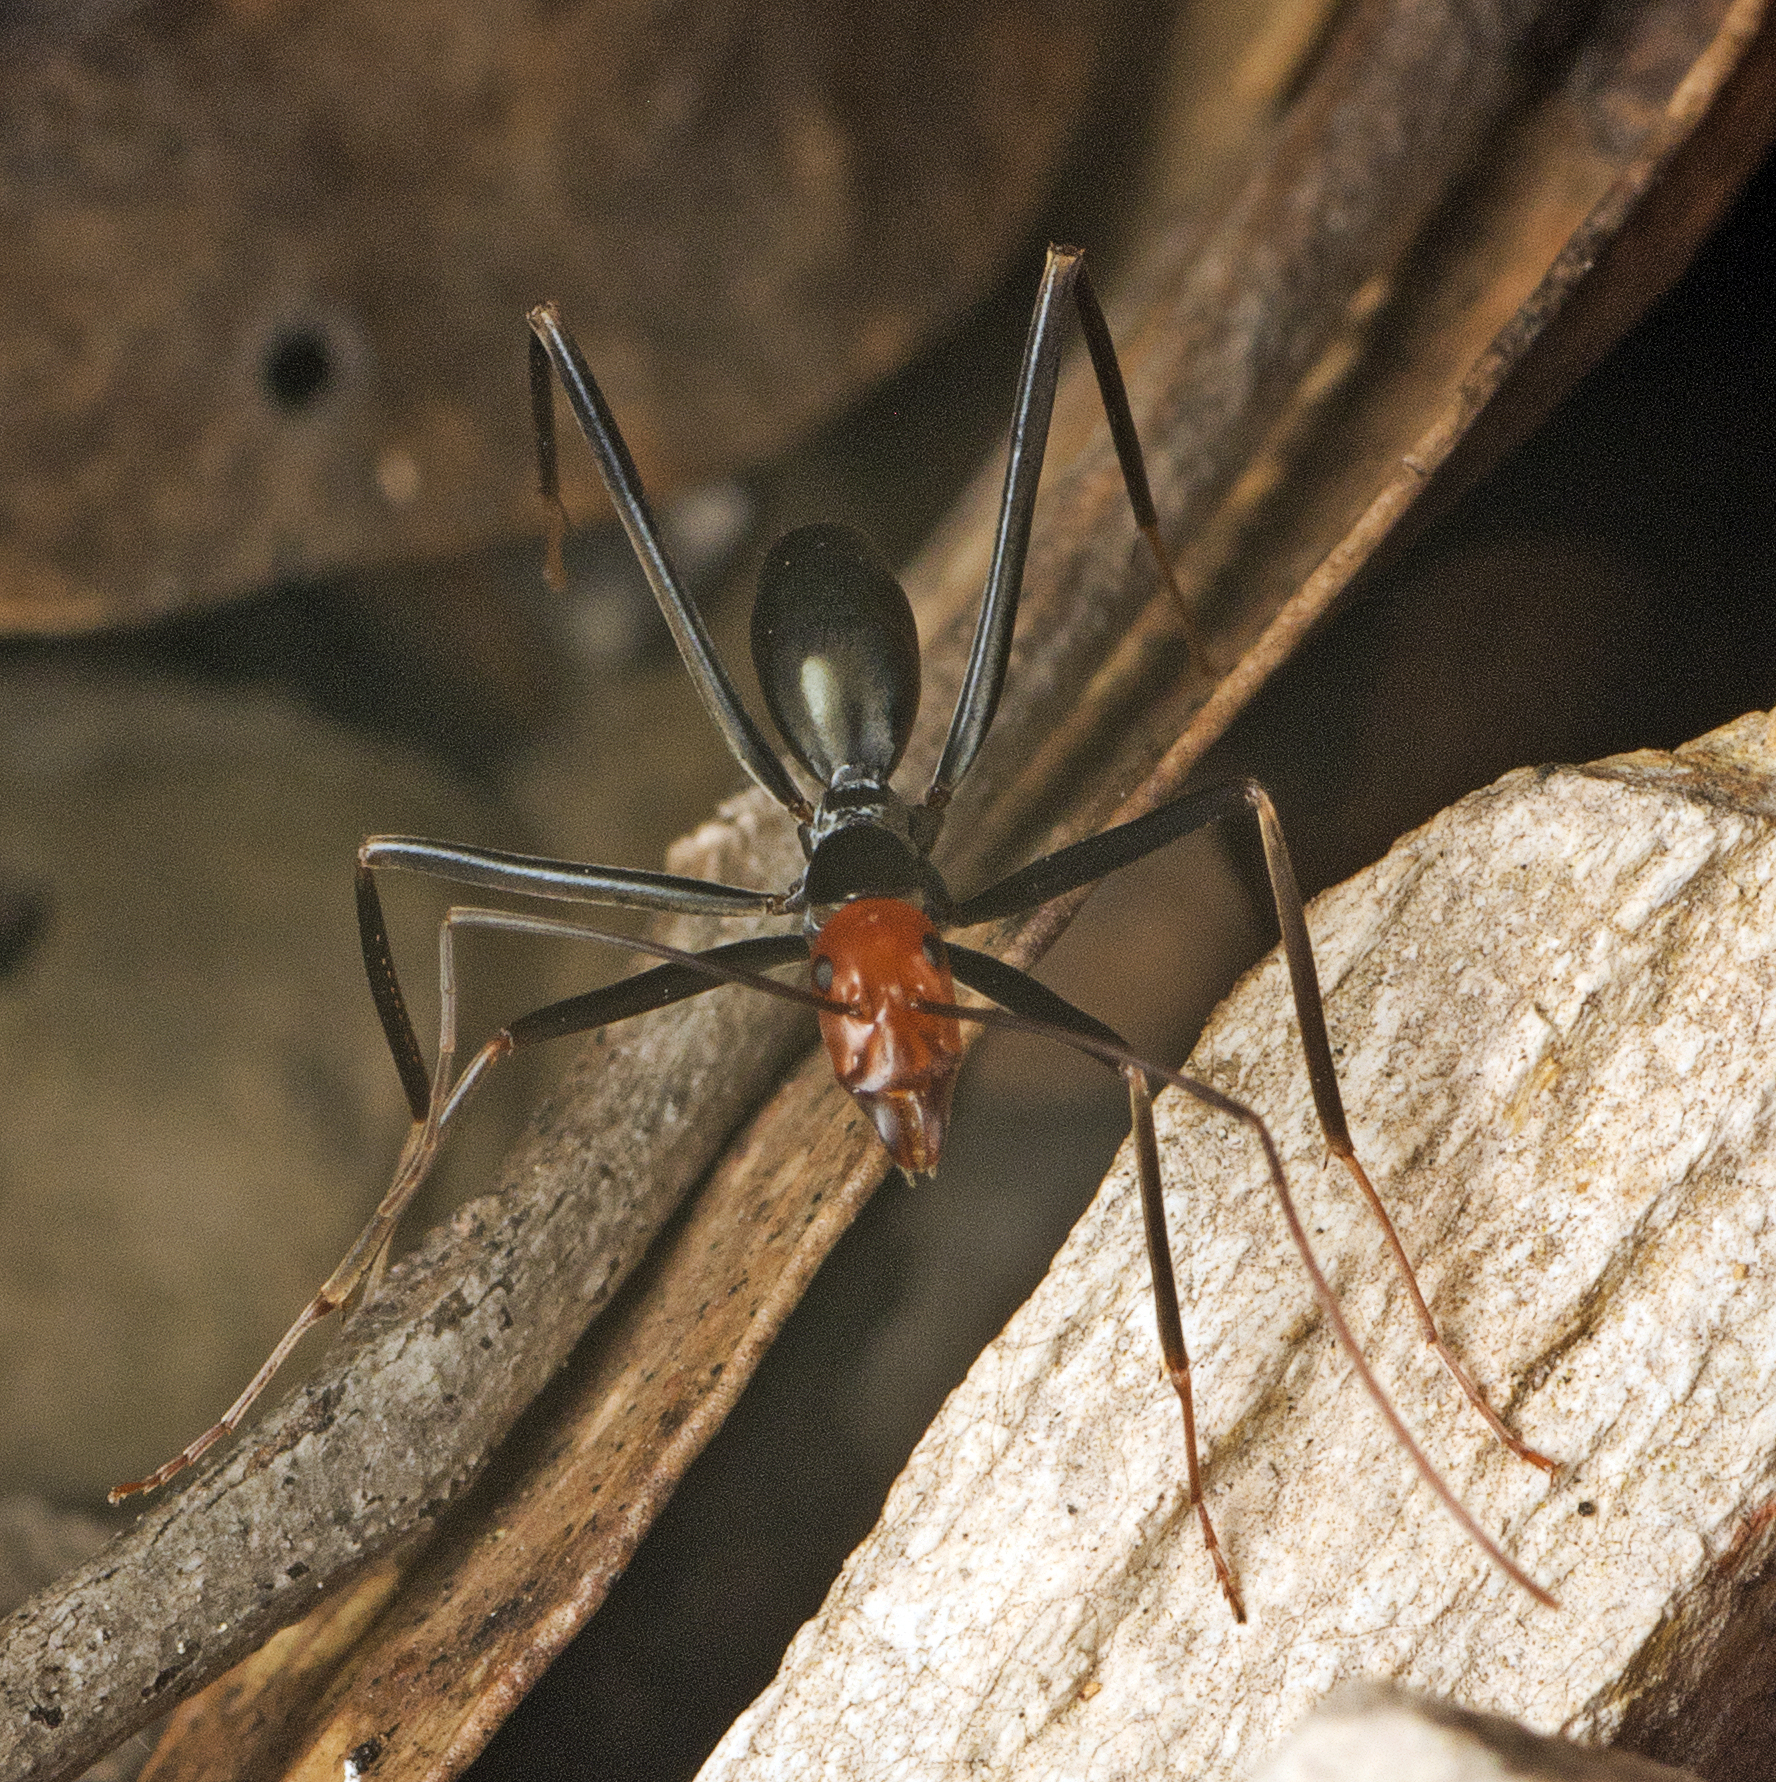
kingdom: Animalia
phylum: Arthropoda
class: Insecta
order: Hymenoptera
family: Formicidae
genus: Leptomyrmex
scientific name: Leptomyrmex erythrocephalus
